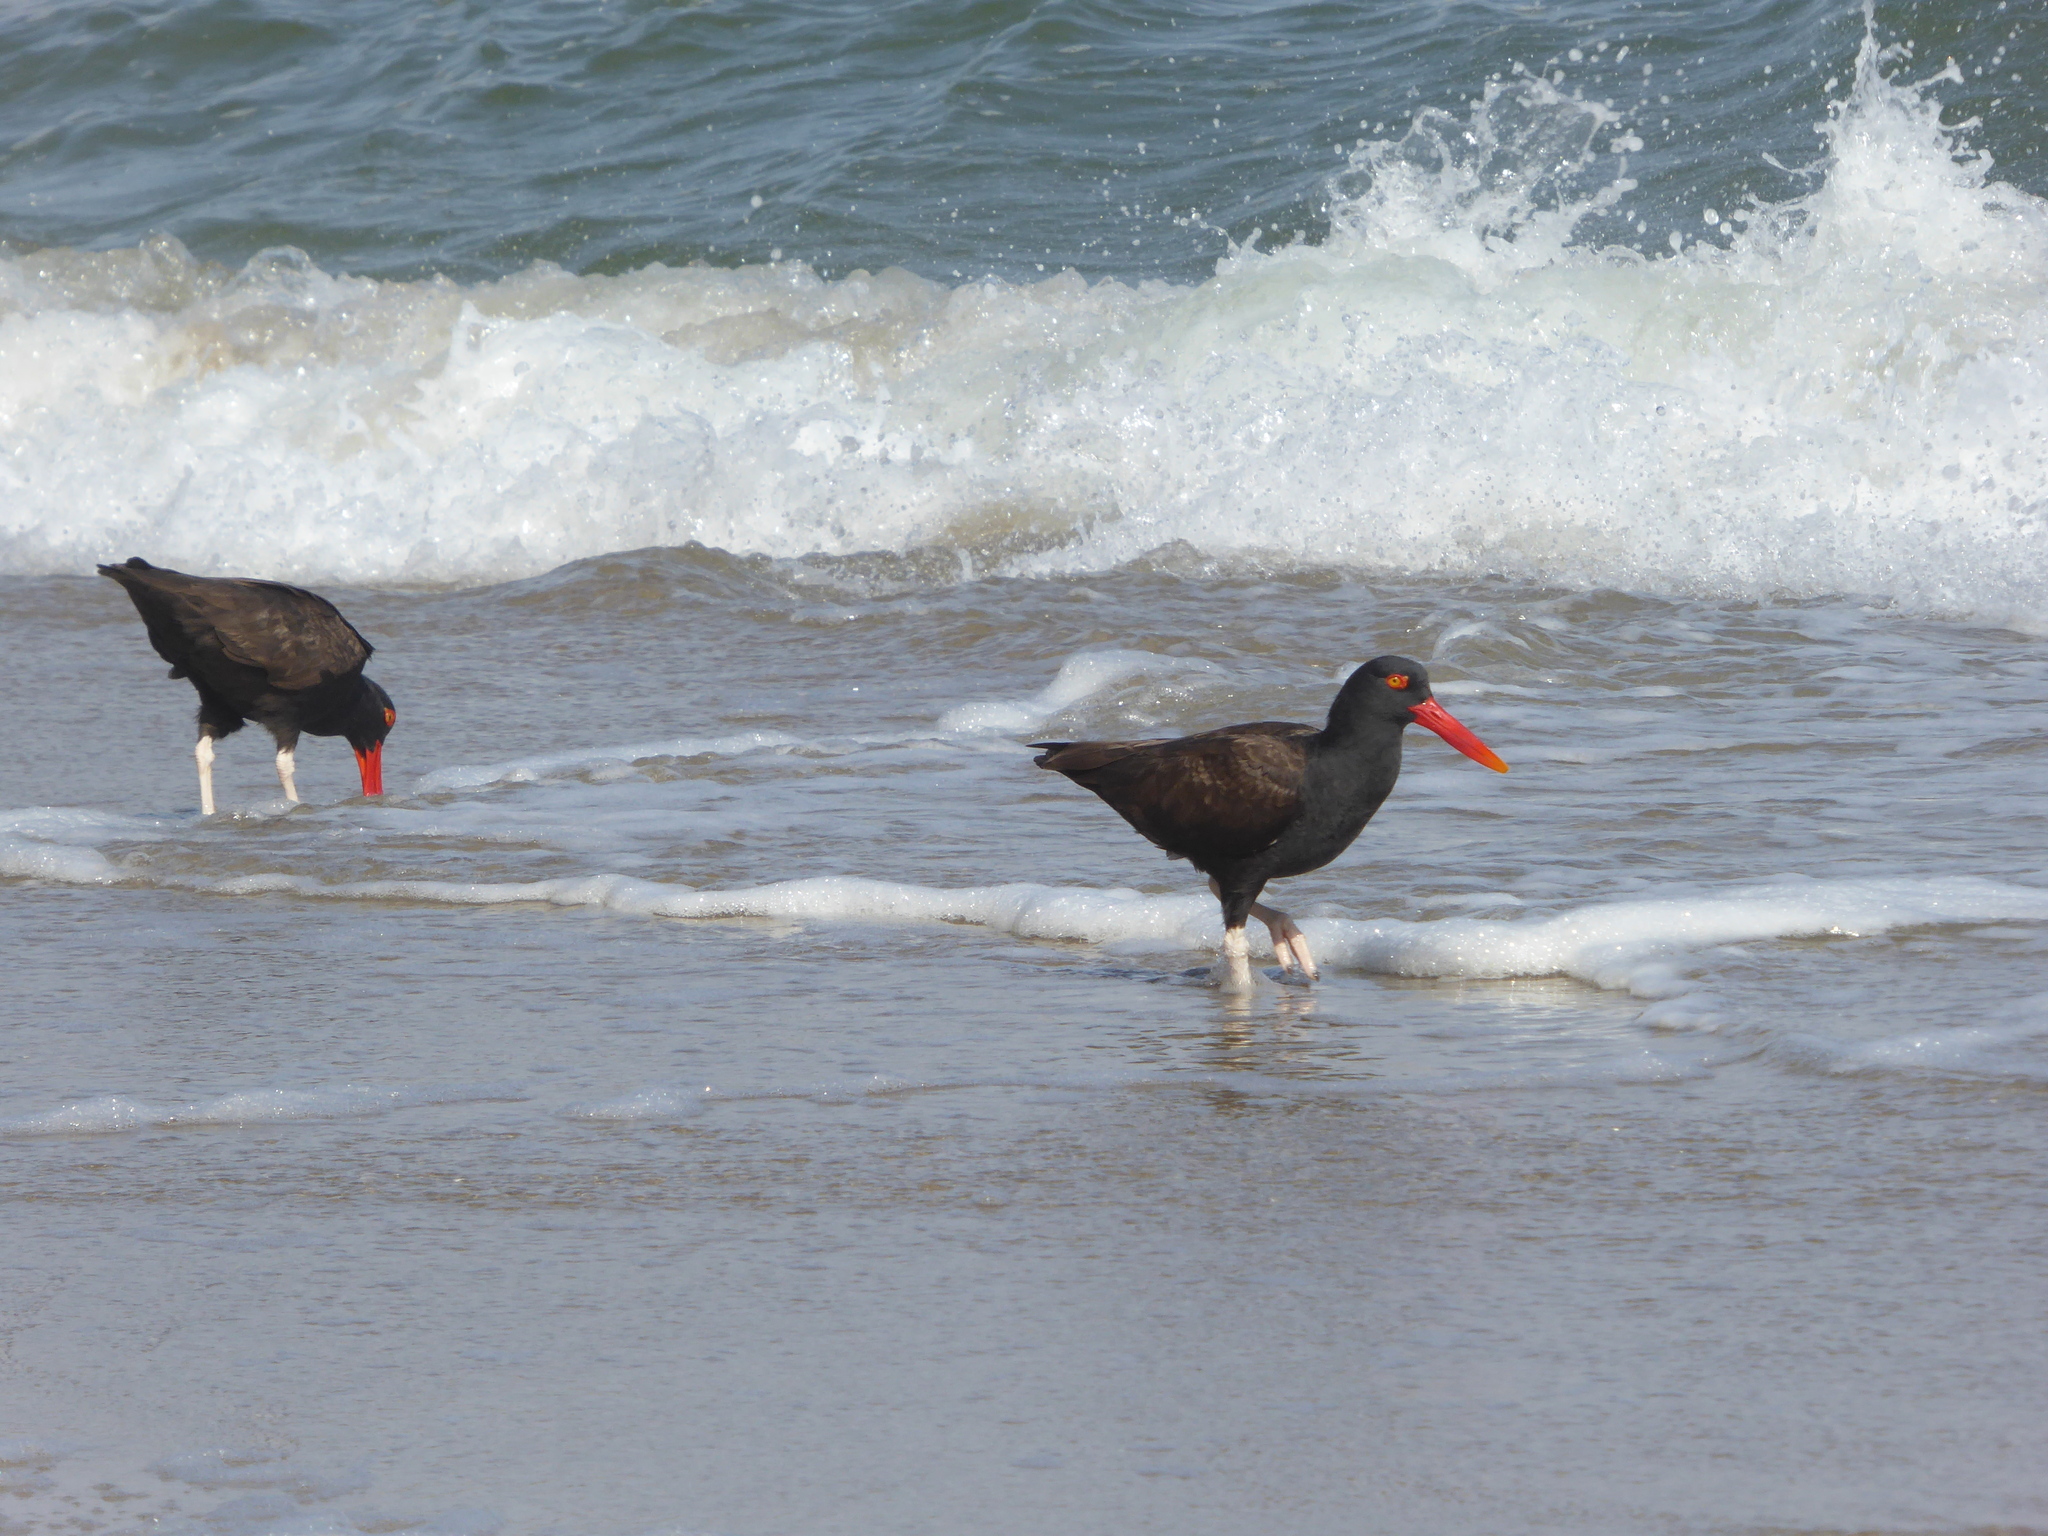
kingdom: Animalia
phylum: Chordata
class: Aves
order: Charadriiformes
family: Haematopodidae
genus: Haematopus
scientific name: Haematopus ater
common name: Blackish oystercatcher
